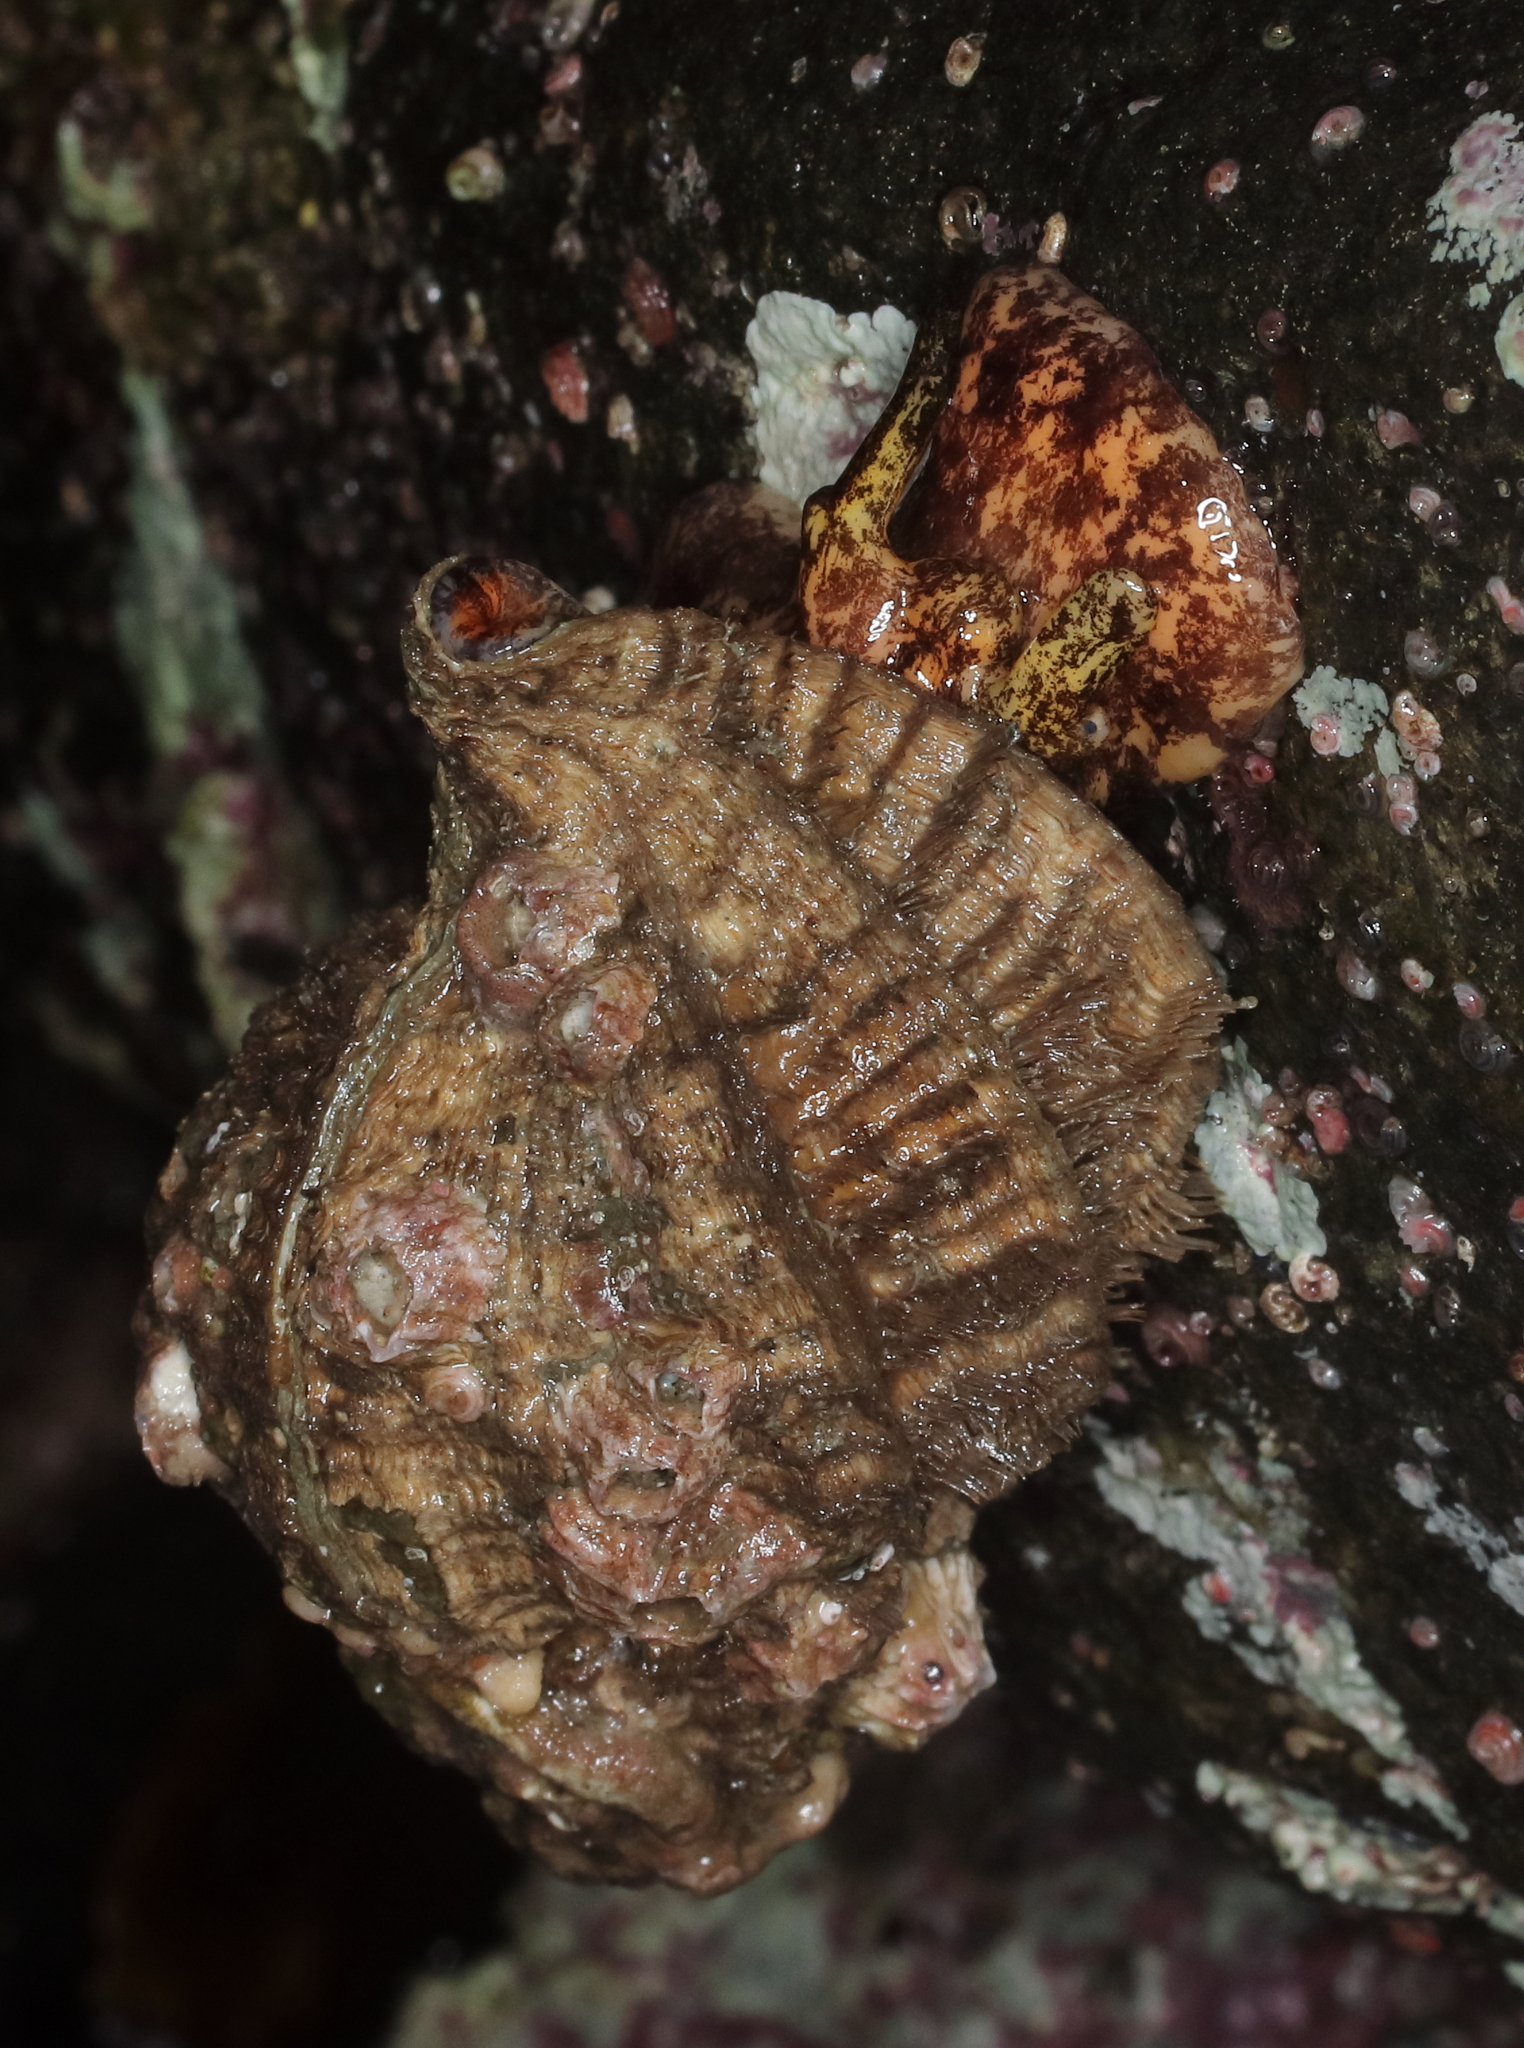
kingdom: Animalia
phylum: Mollusca
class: Gastropoda
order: Littorinimorpha
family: Cymatiidae
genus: Fusitriton
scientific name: Fusitriton oregonensis
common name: Oregon hairy triton
